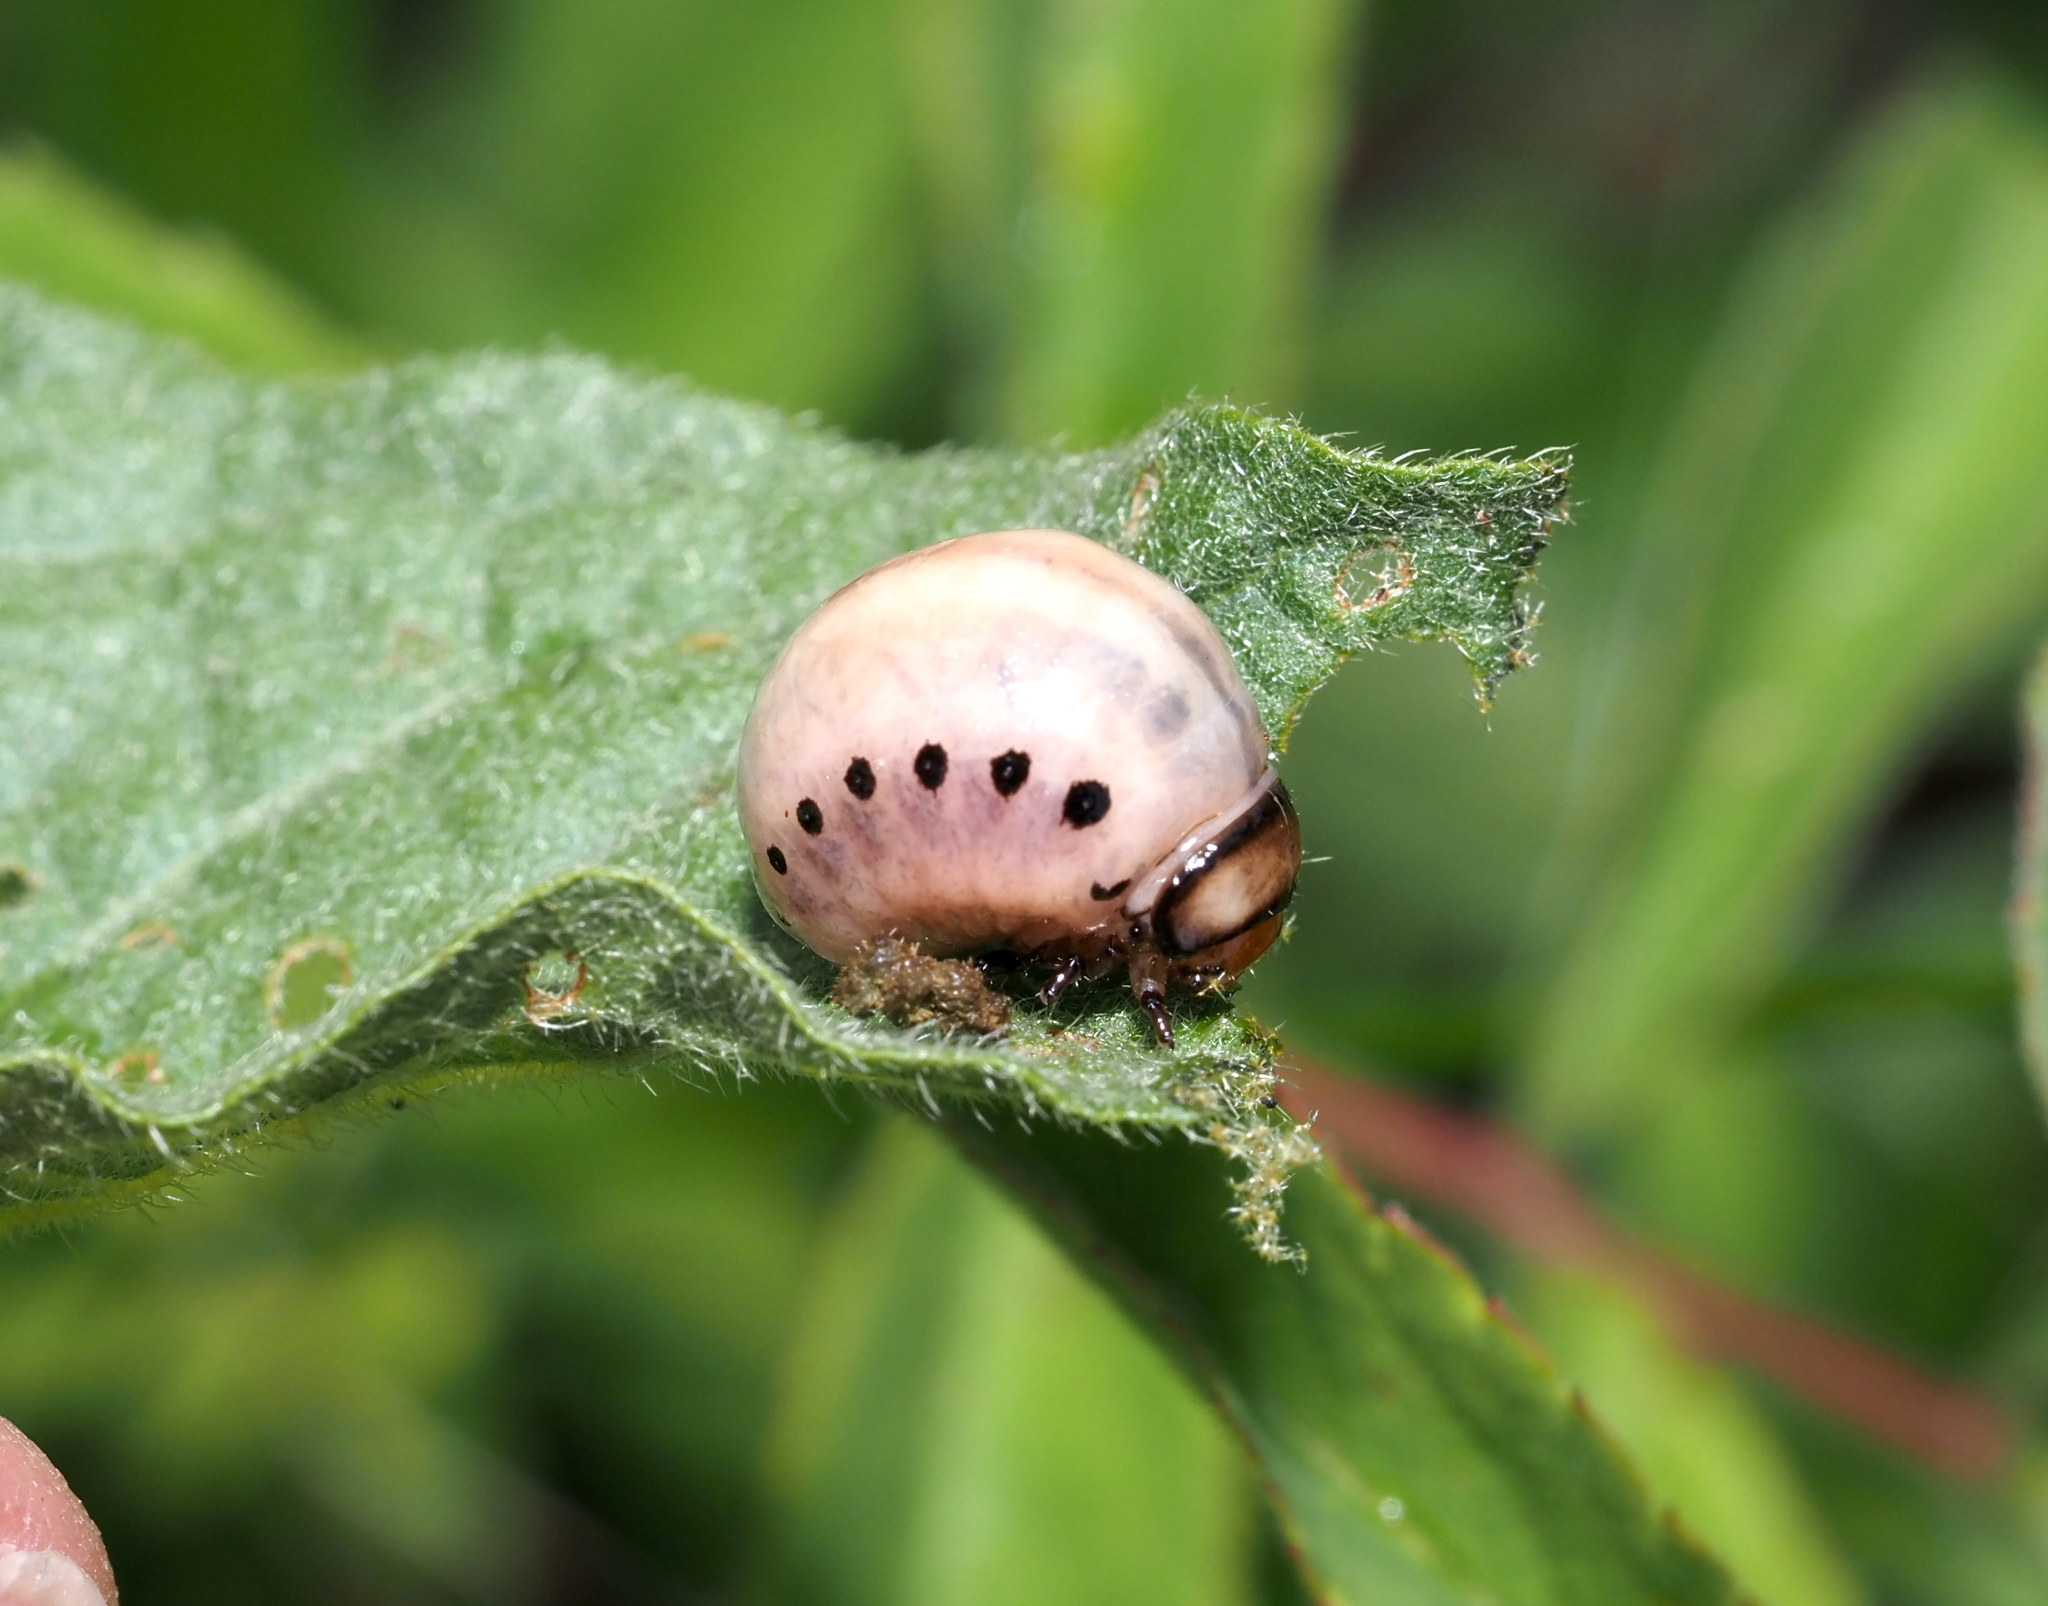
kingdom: Animalia
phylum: Arthropoda
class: Insecta
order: Coleoptera
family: Chrysomelidae
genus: Leptinotarsa
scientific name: Leptinotarsa juncta
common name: False potato beetle
